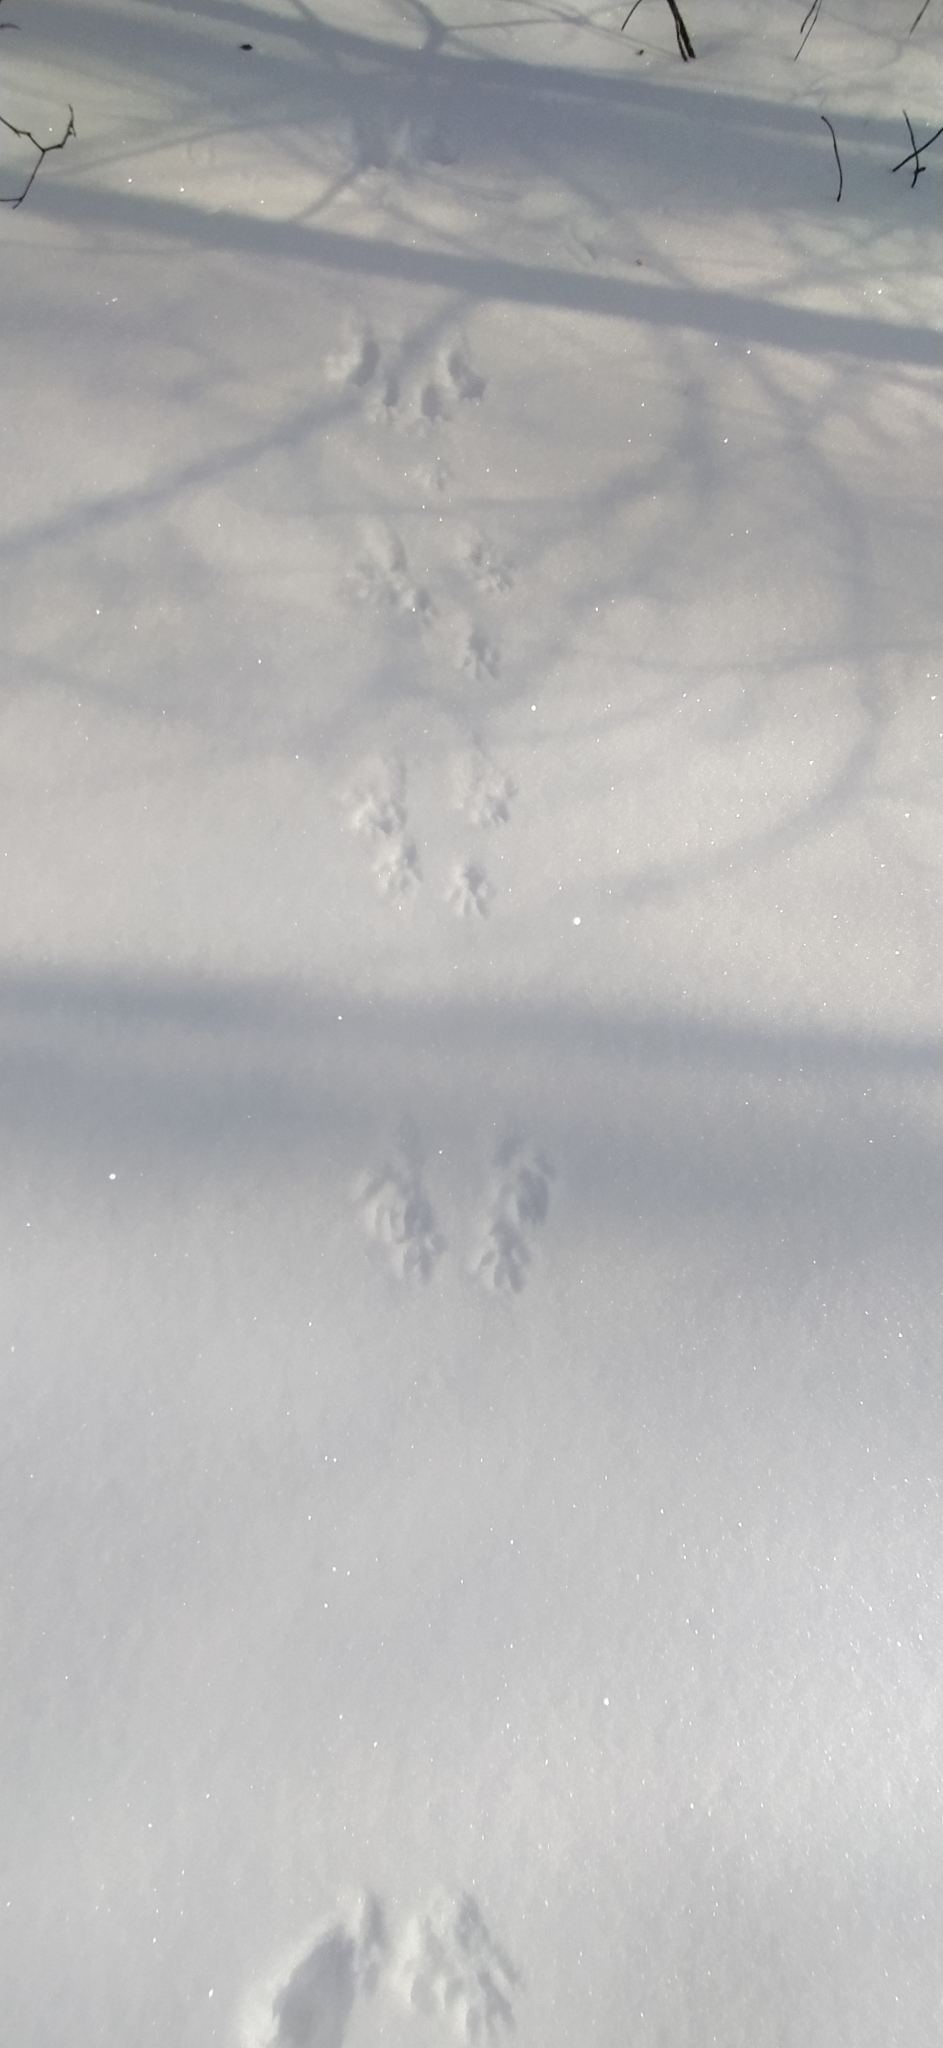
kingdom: Animalia
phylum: Chordata
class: Mammalia
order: Rodentia
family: Sciuridae
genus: Sciurus
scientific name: Sciurus vulgaris
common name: Eurasian red squirrel
